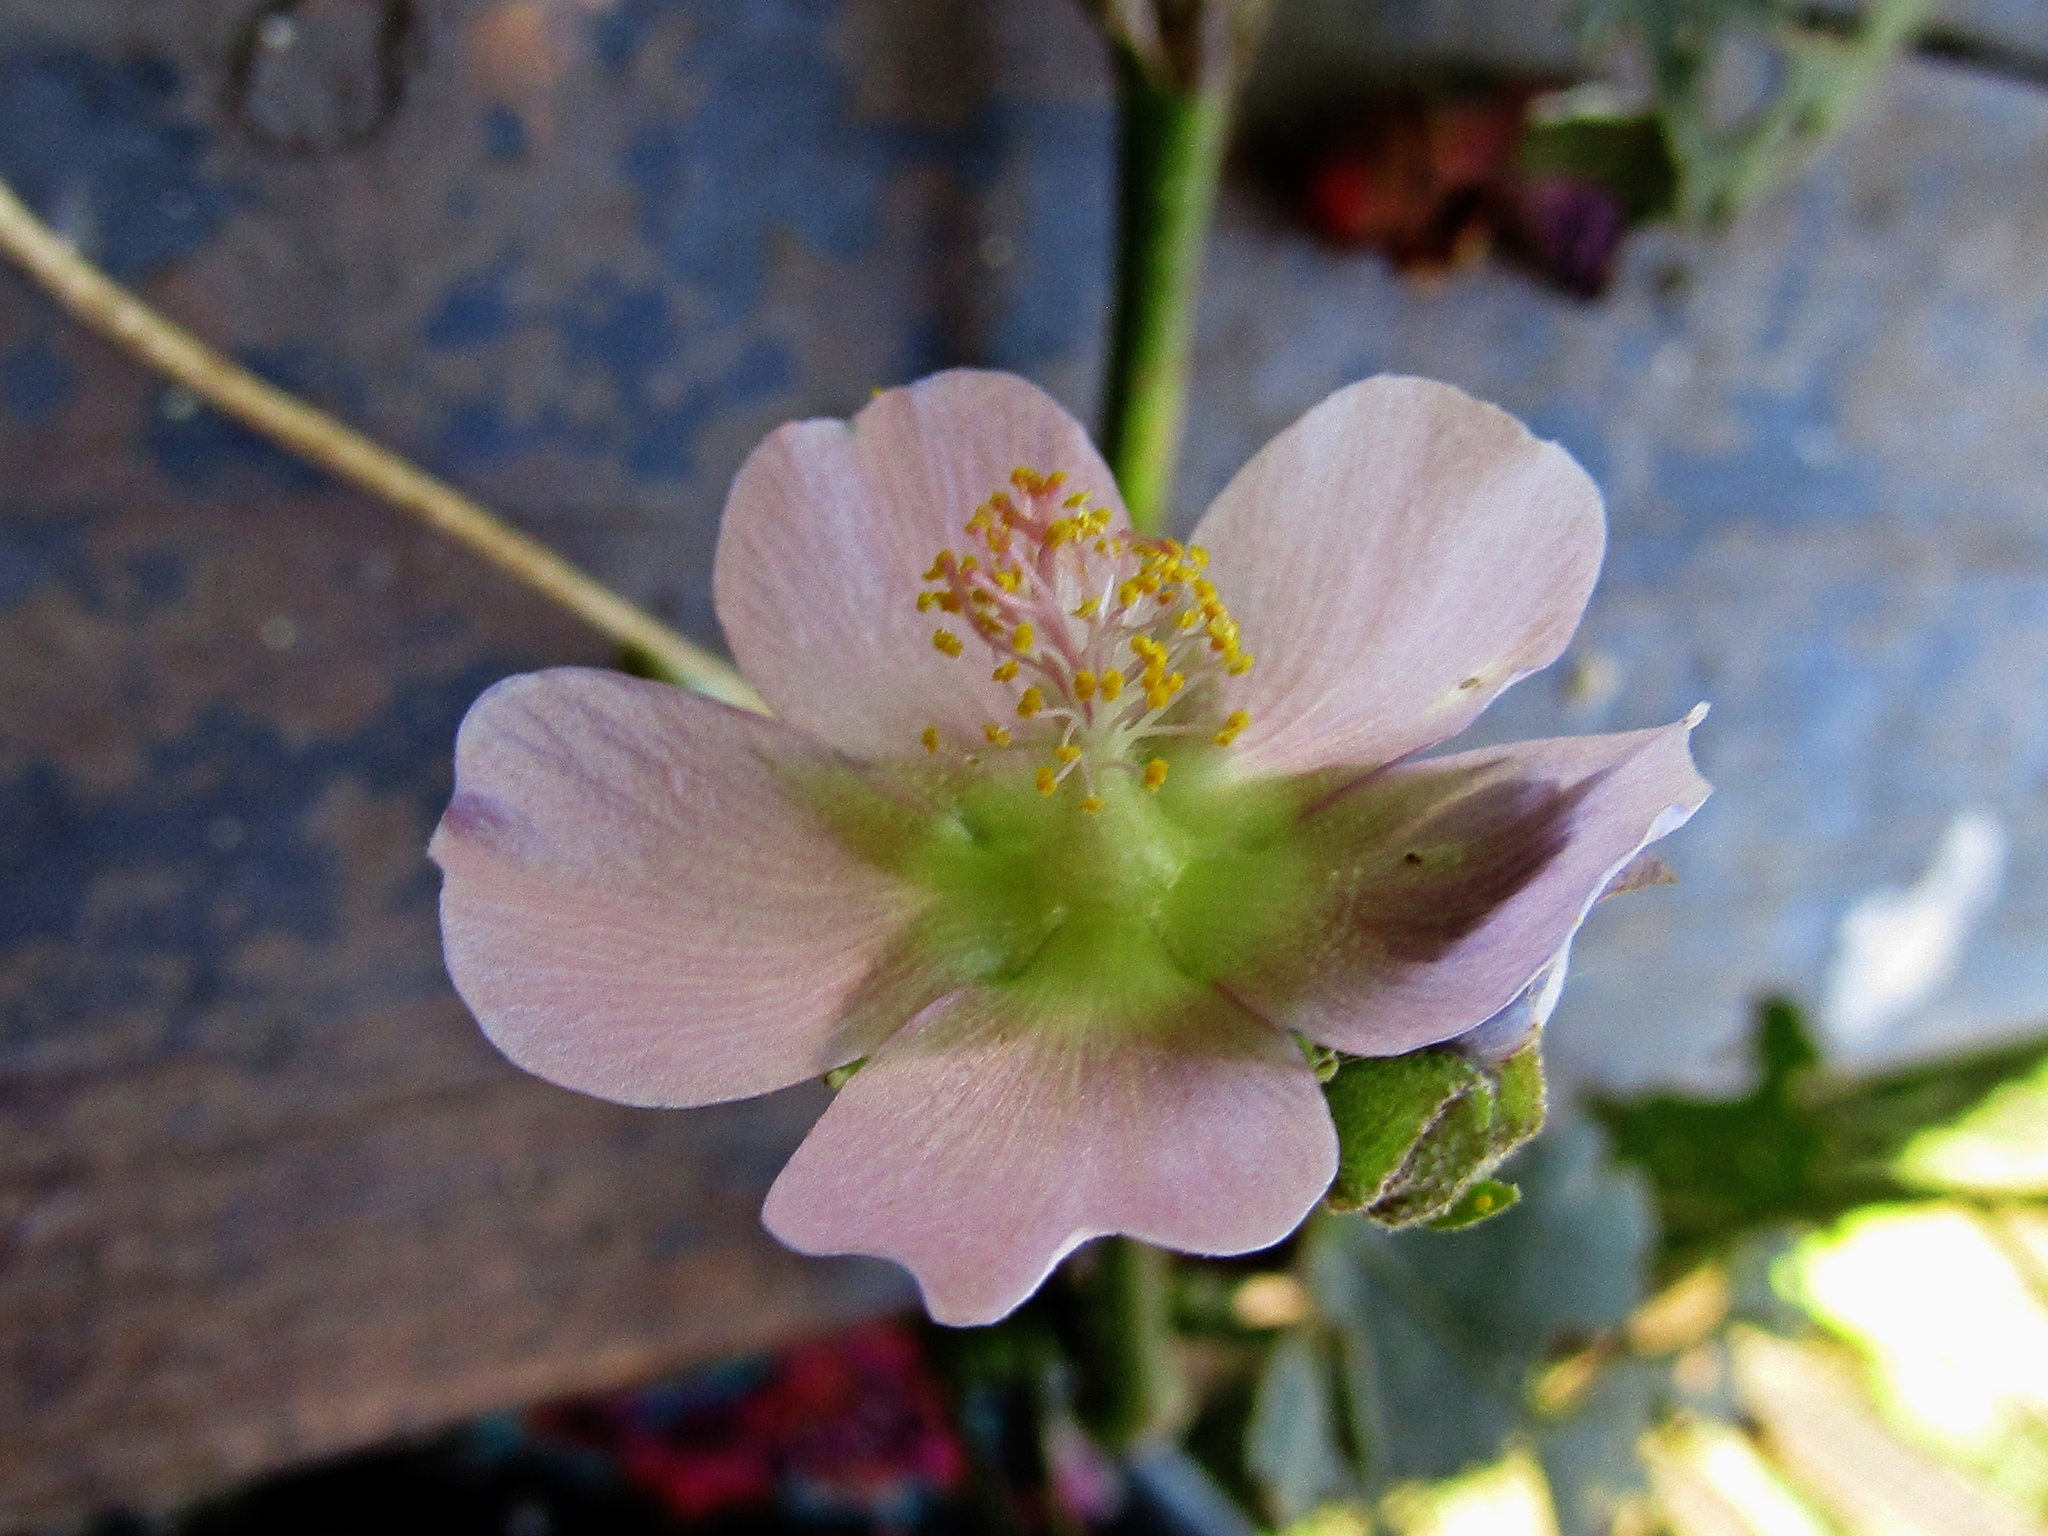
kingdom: Plantae
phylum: Tracheophyta
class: Magnoliopsida
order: Malvales
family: Malvaceae
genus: Monteiroa
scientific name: Monteiroa glomerata
